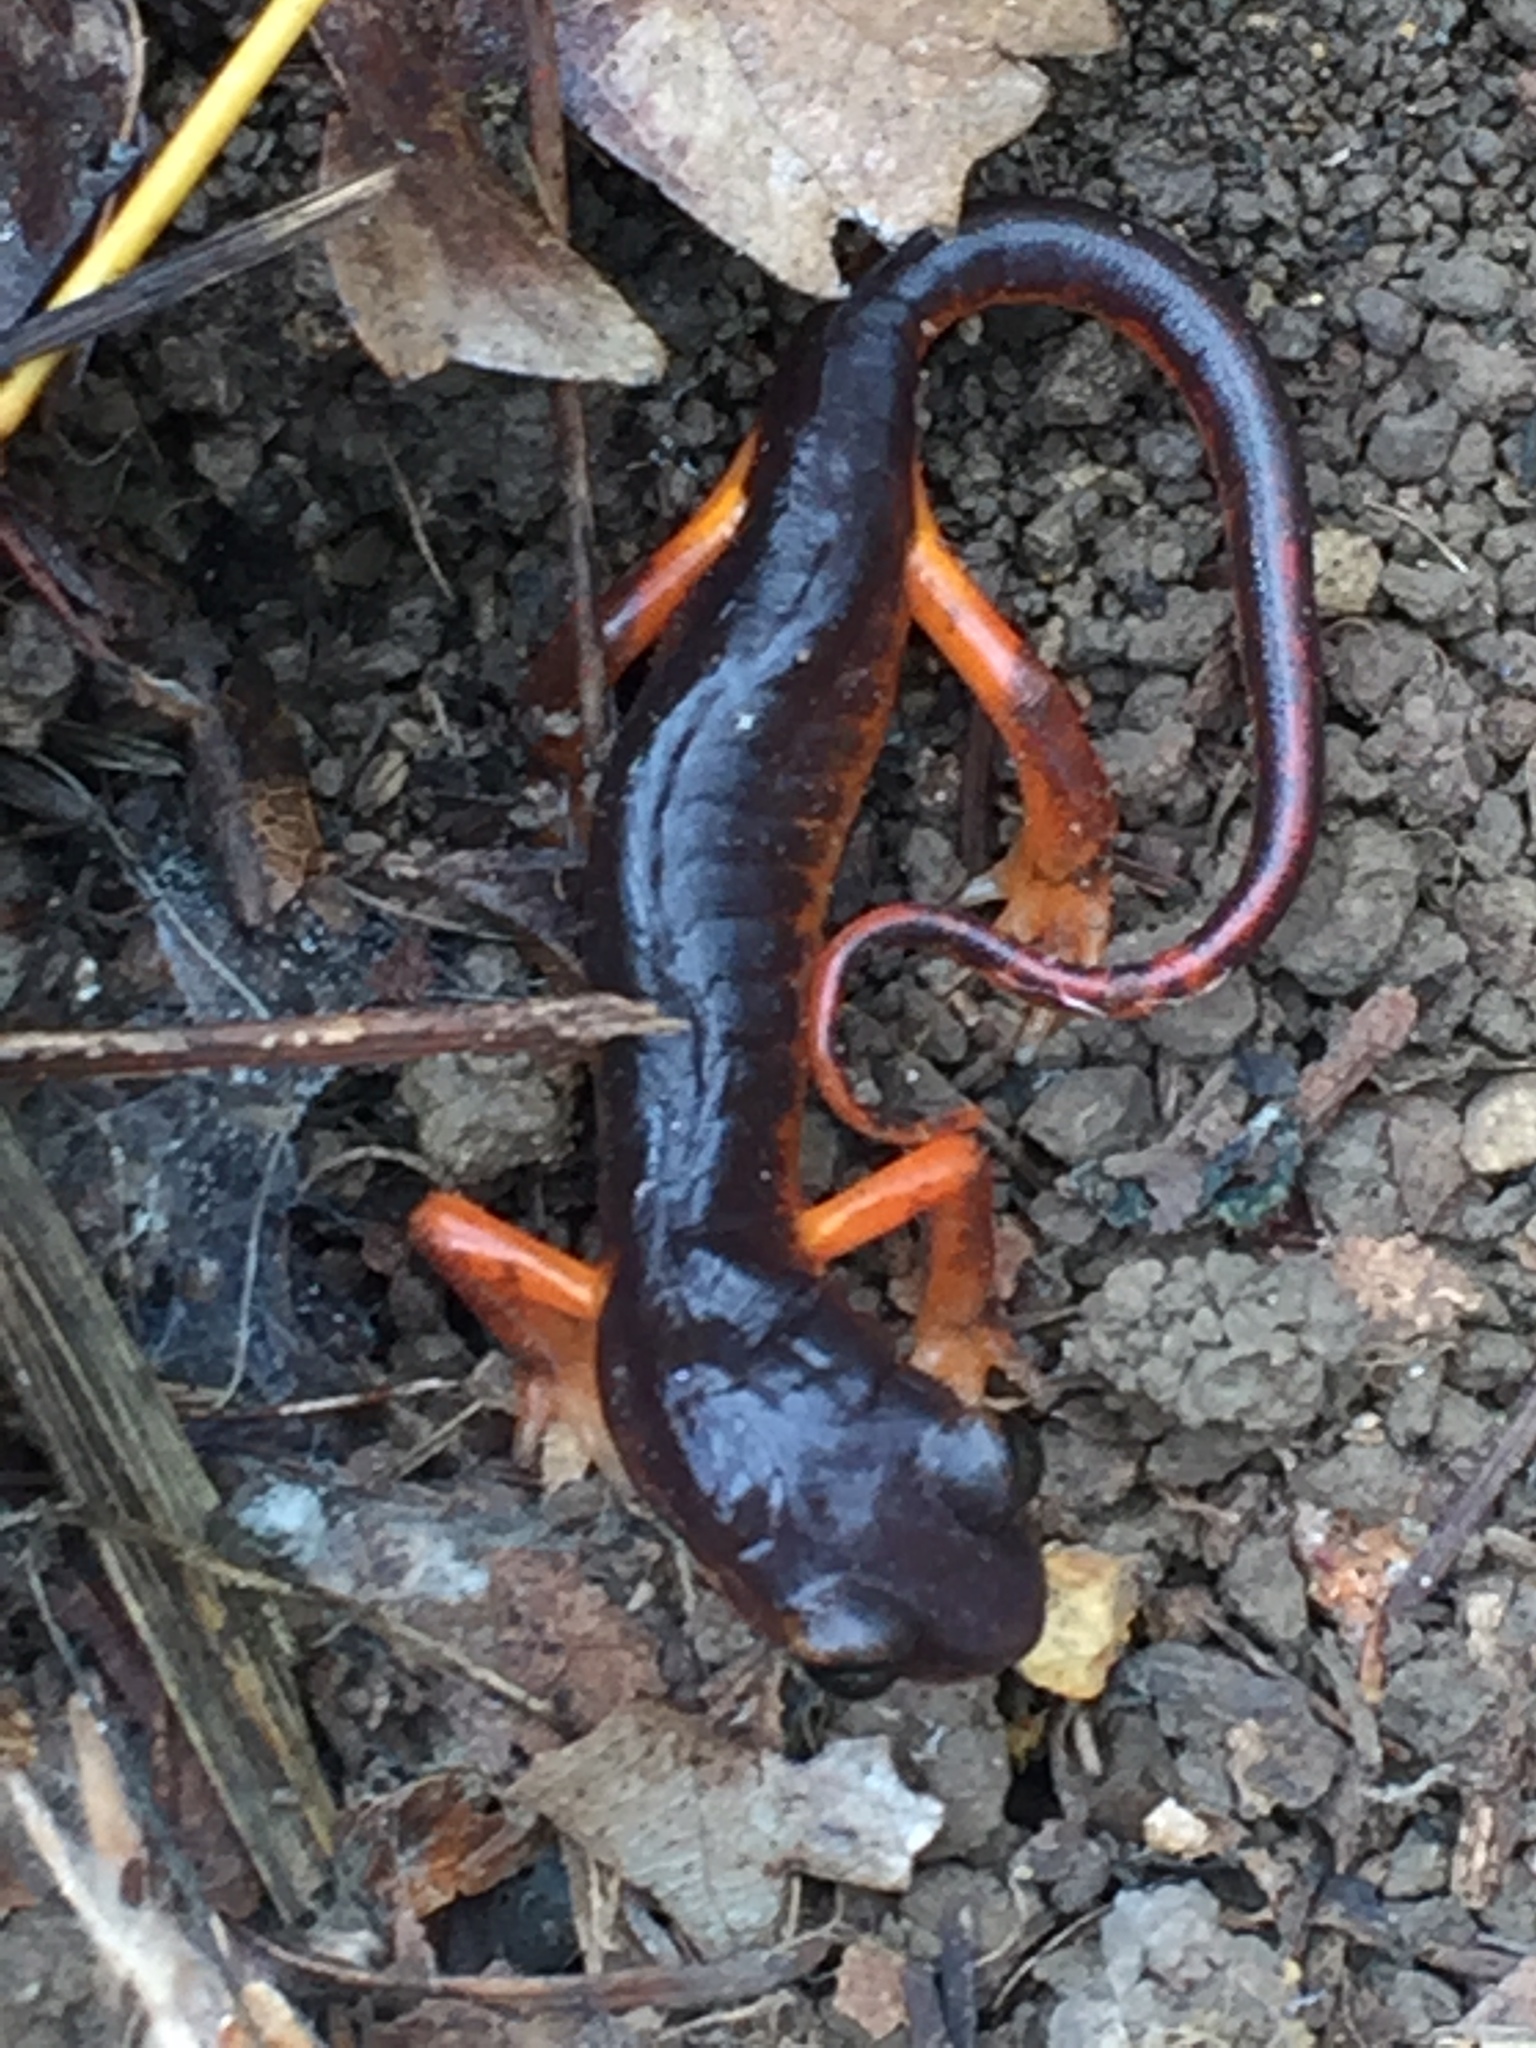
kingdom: Animalia
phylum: Chordata
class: Amphibia
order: Caudata
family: Plethodontidae
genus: Ensatina
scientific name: Ensatina eschscholtzii
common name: Ensatina
